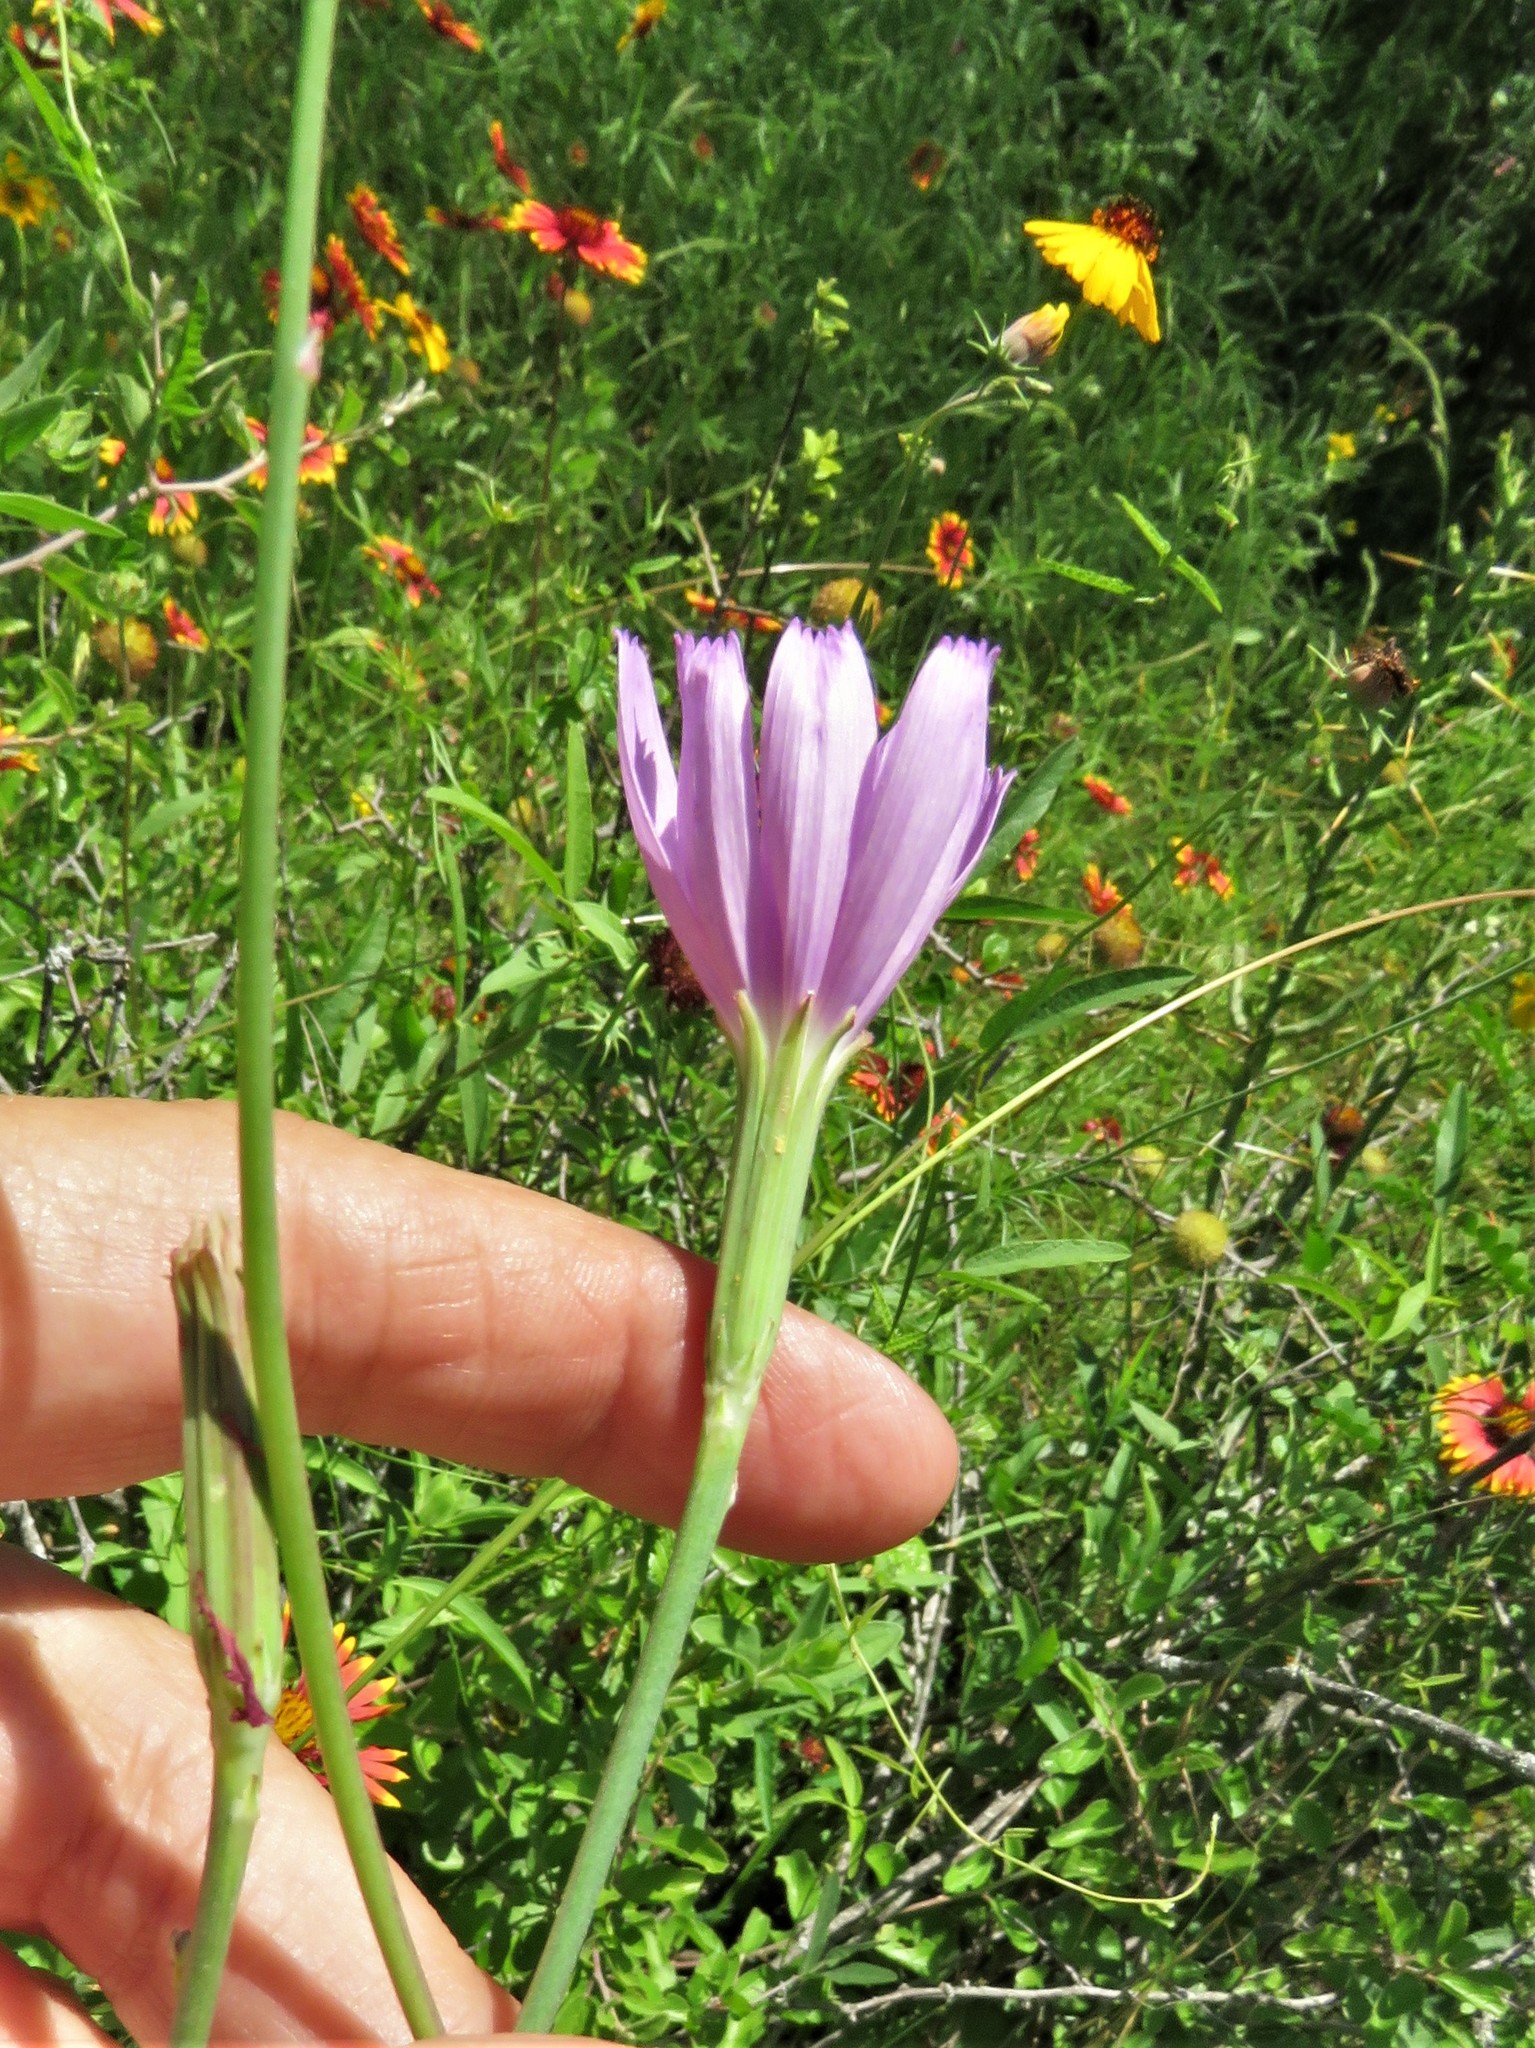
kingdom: Plantae
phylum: Tracheophyta
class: Magnoliopsida
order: Asterales
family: Asteraceae
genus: Lygodesmia
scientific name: Lygodesmia texana
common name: Texas skeleton-plant
